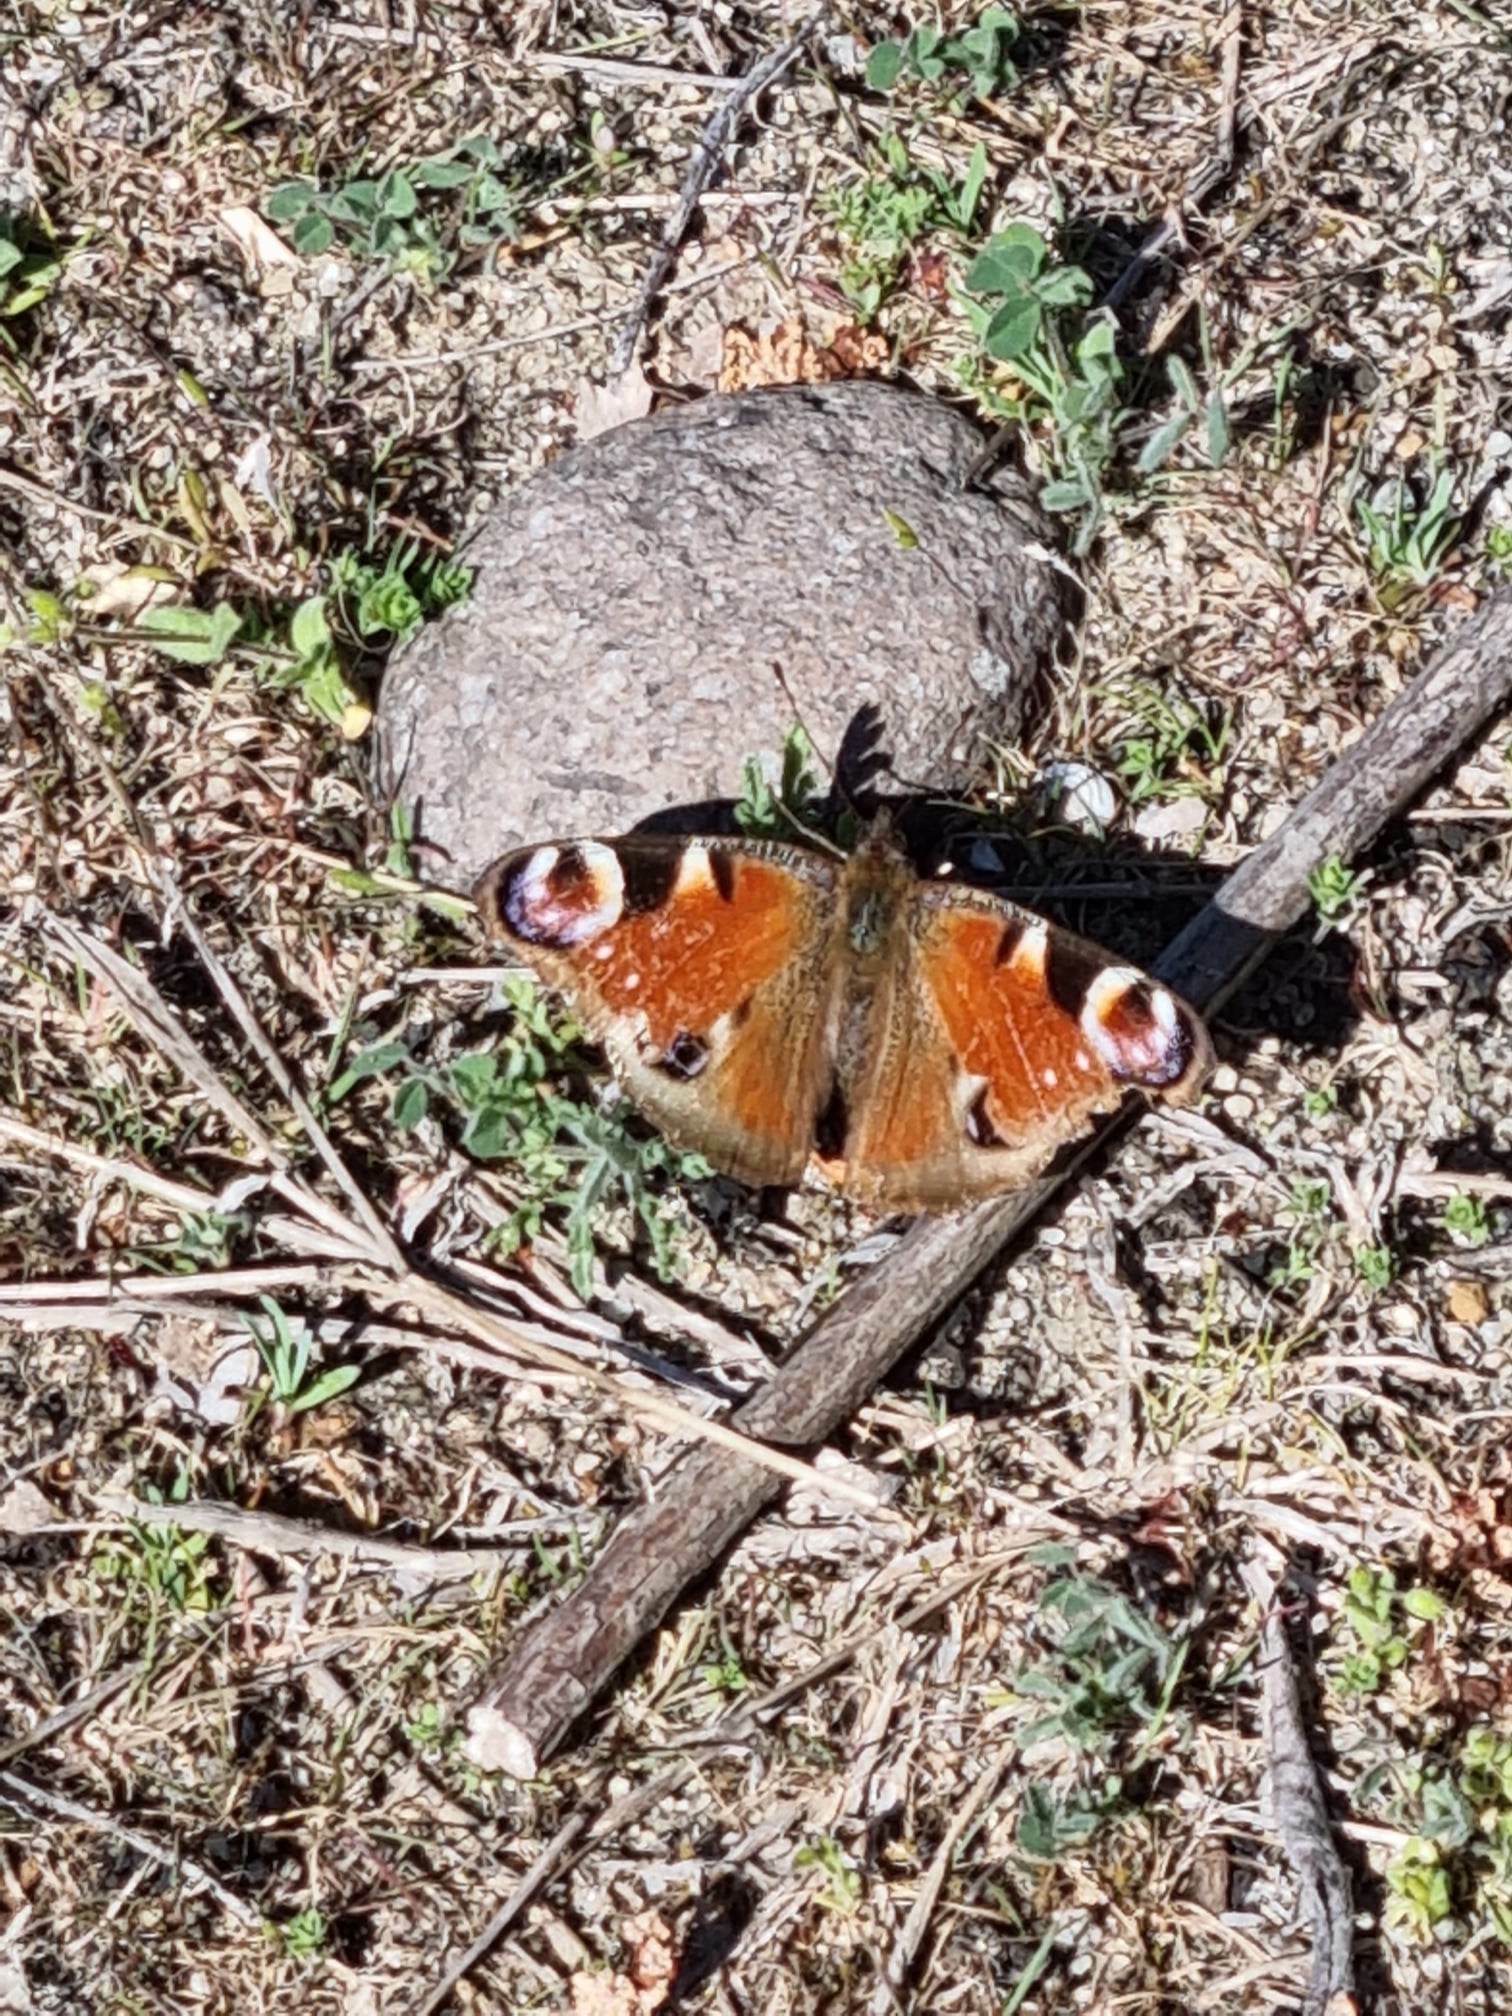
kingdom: Animalia
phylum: Arthropoda
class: Insecta
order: Lepidoptera
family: Nymphalidae
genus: Aglais
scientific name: Aglais io
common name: Peacock
